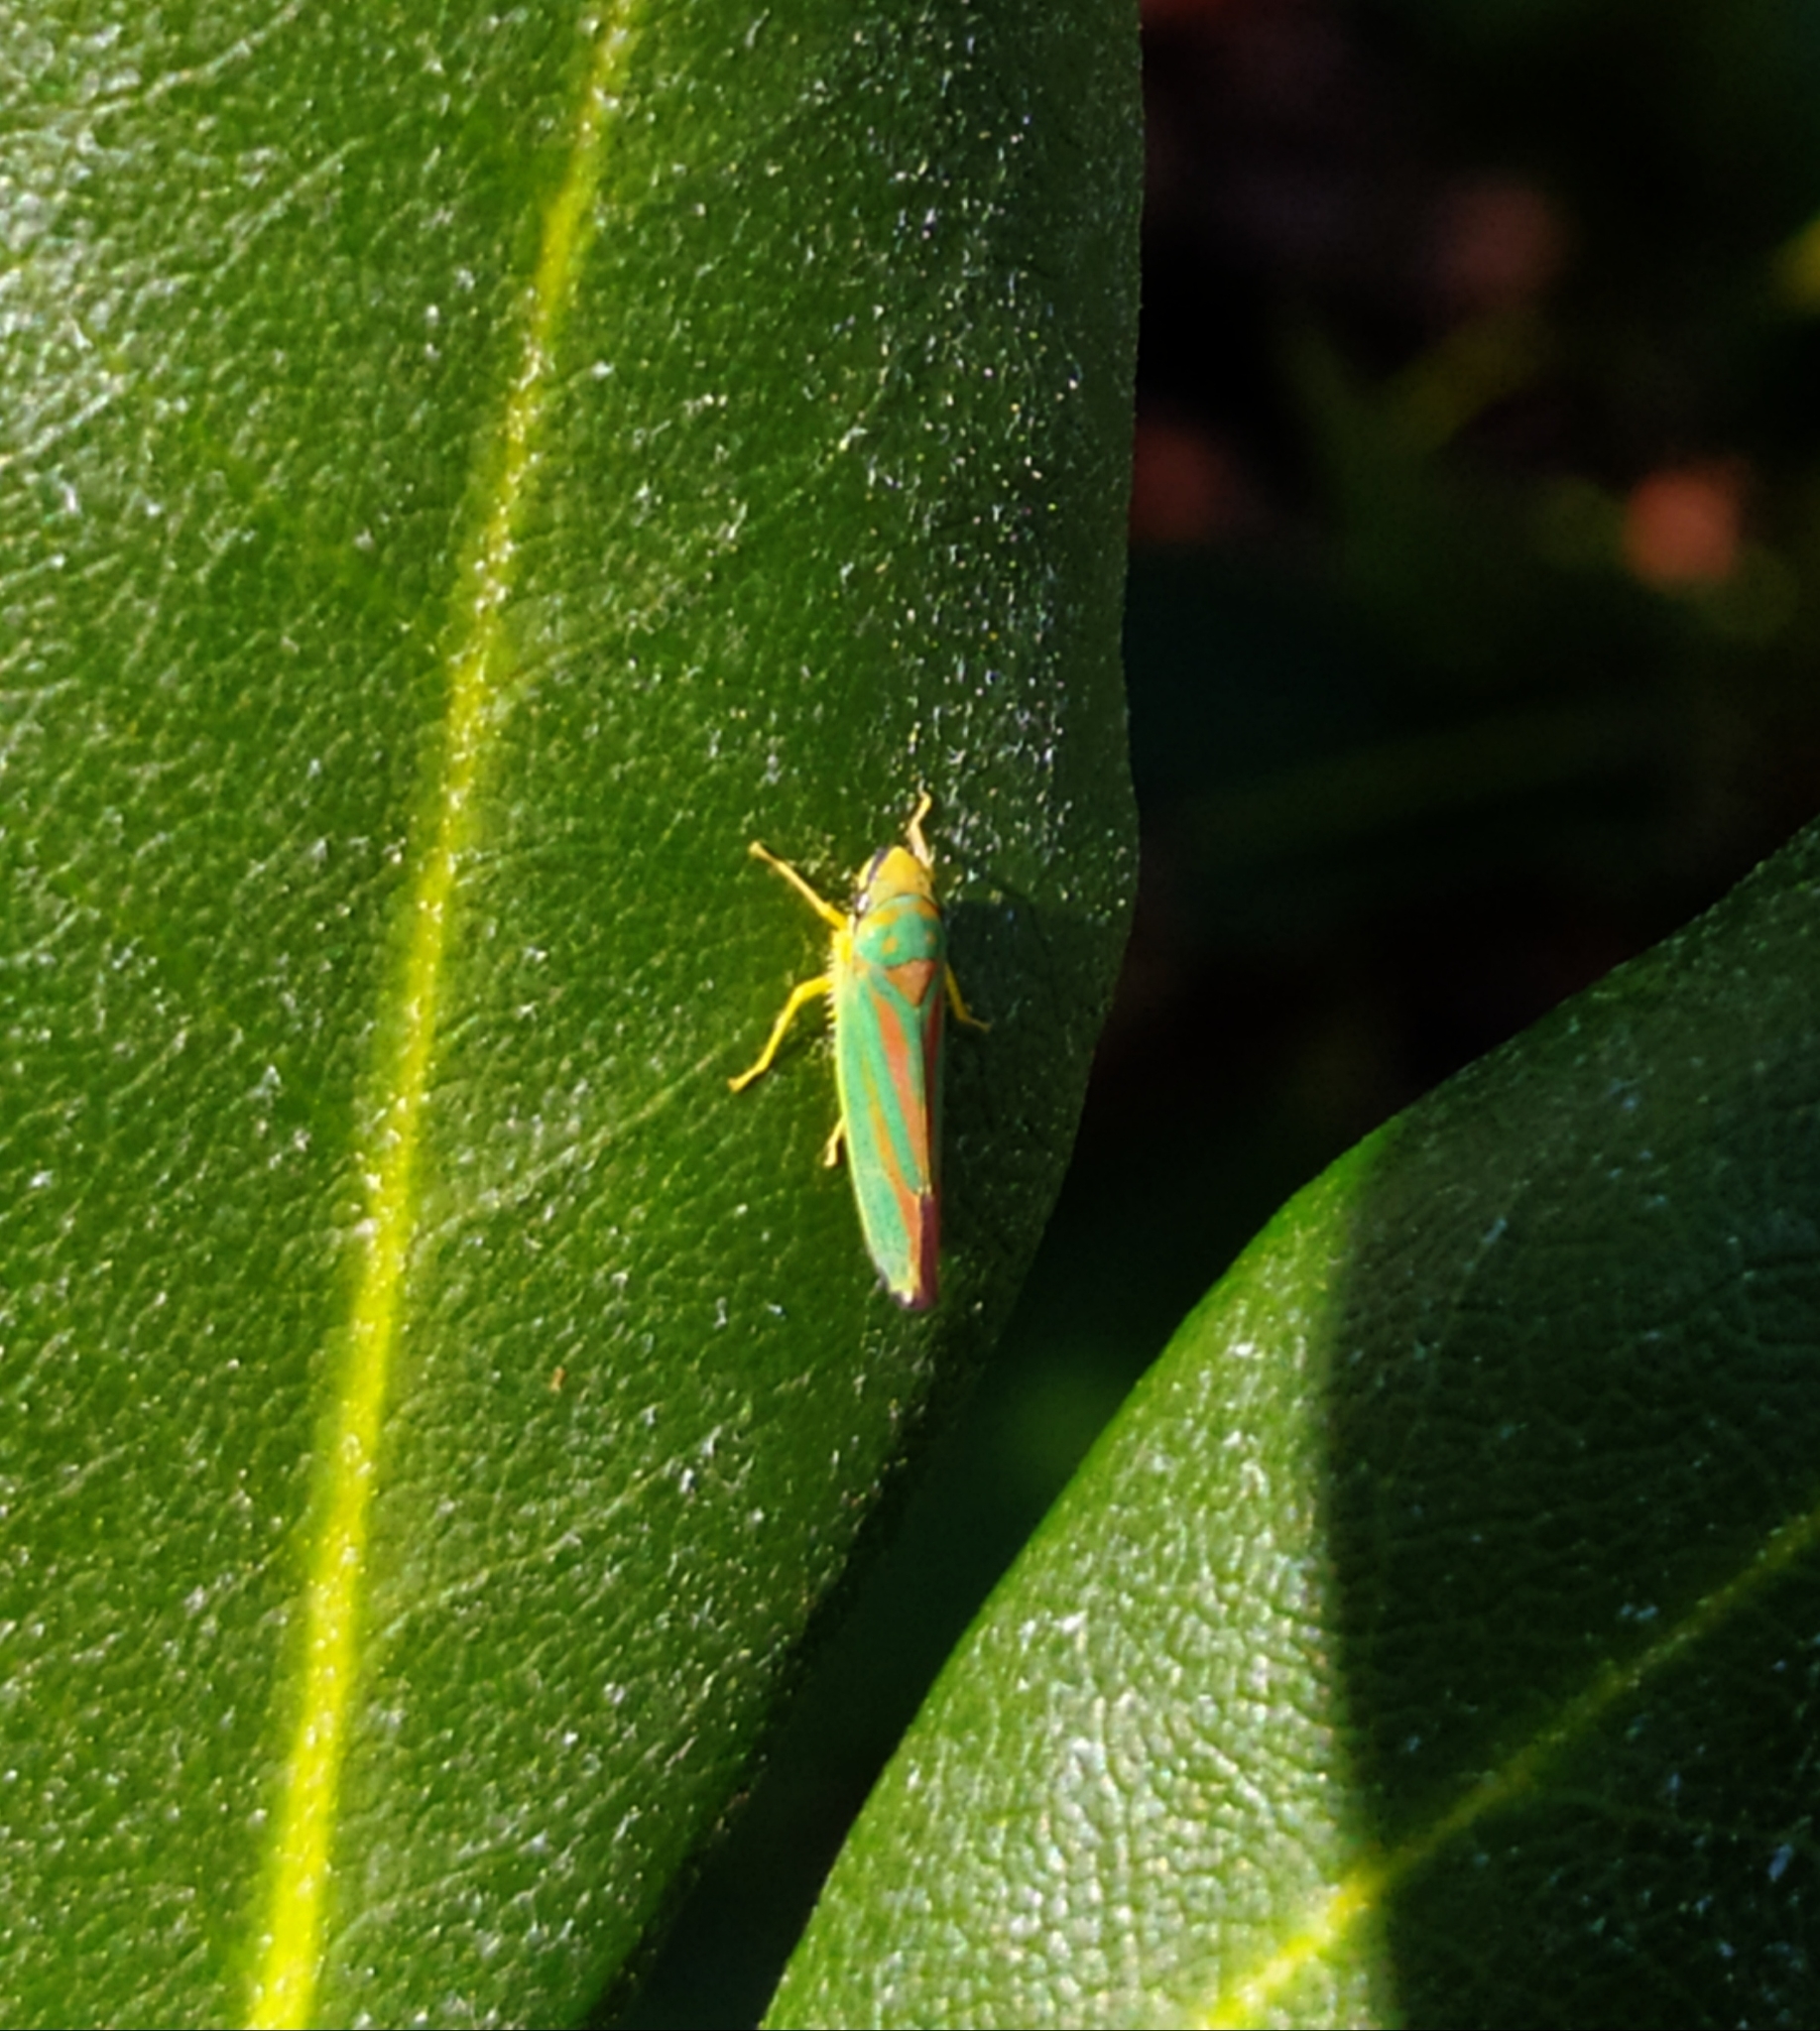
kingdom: Animalia
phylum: Arthropoda
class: Insecta
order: Hemiptera
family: Cicadellidae
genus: Graphocephala
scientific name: Graphocephala fennahi
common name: Rhododendron leafhopper
